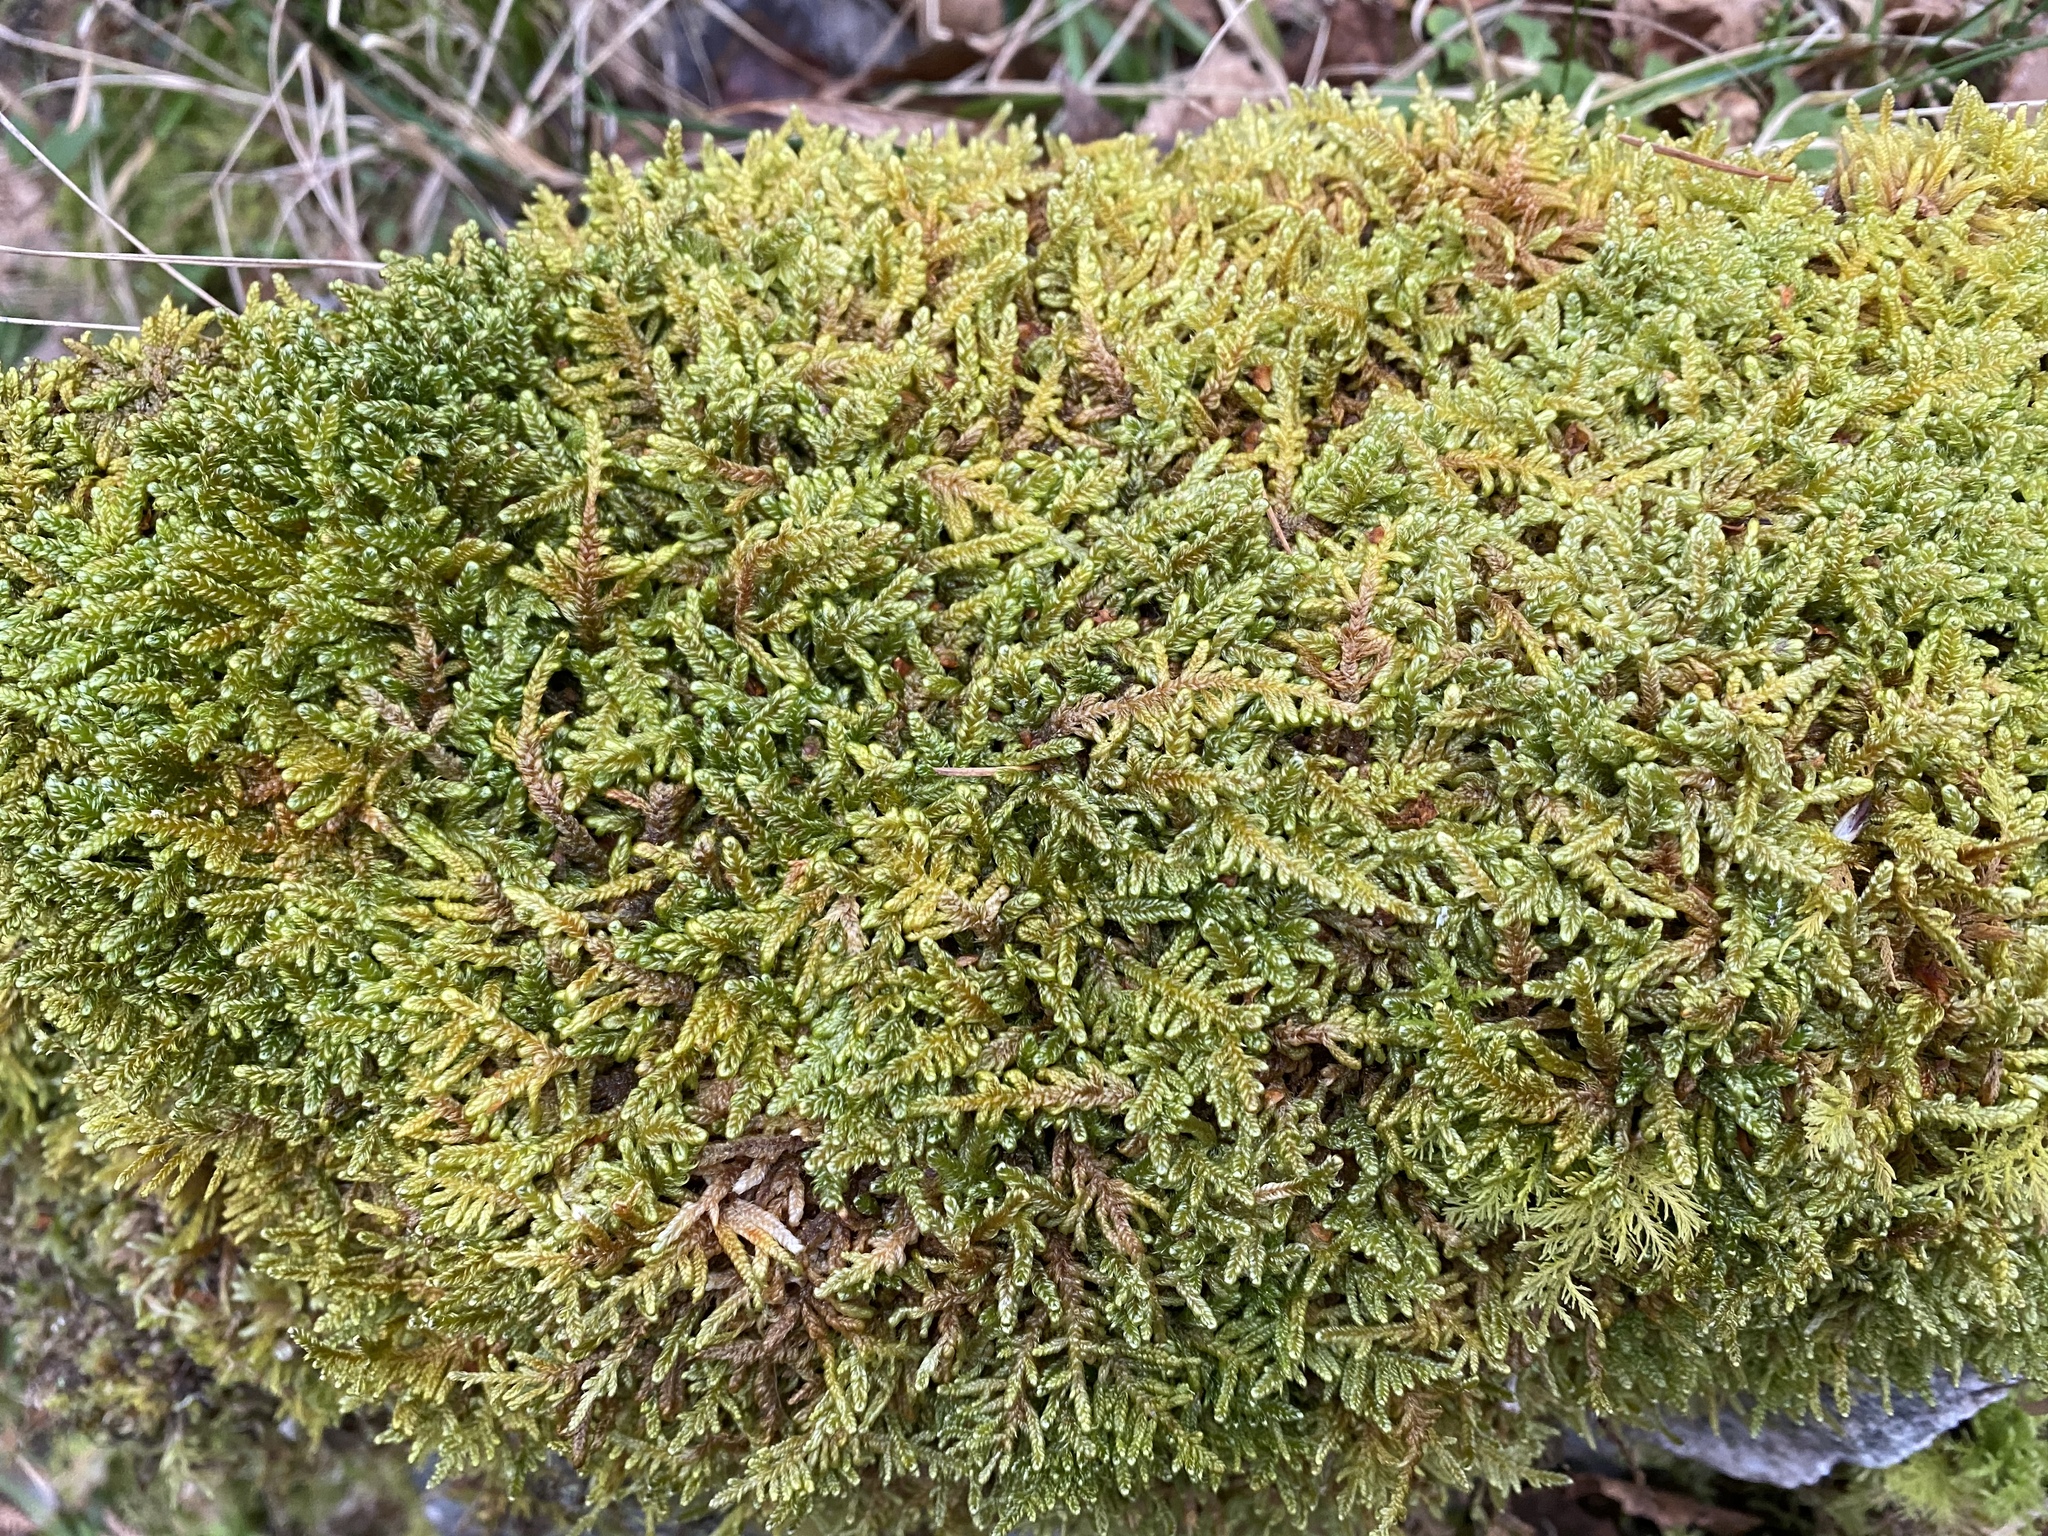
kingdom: Plantae
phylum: Bryophyta
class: Bryopsida
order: Hypnales
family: Hypnaceae
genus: Hypnum
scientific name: Hypnum cupressiforme
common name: Cypress-leaved plait-moss
